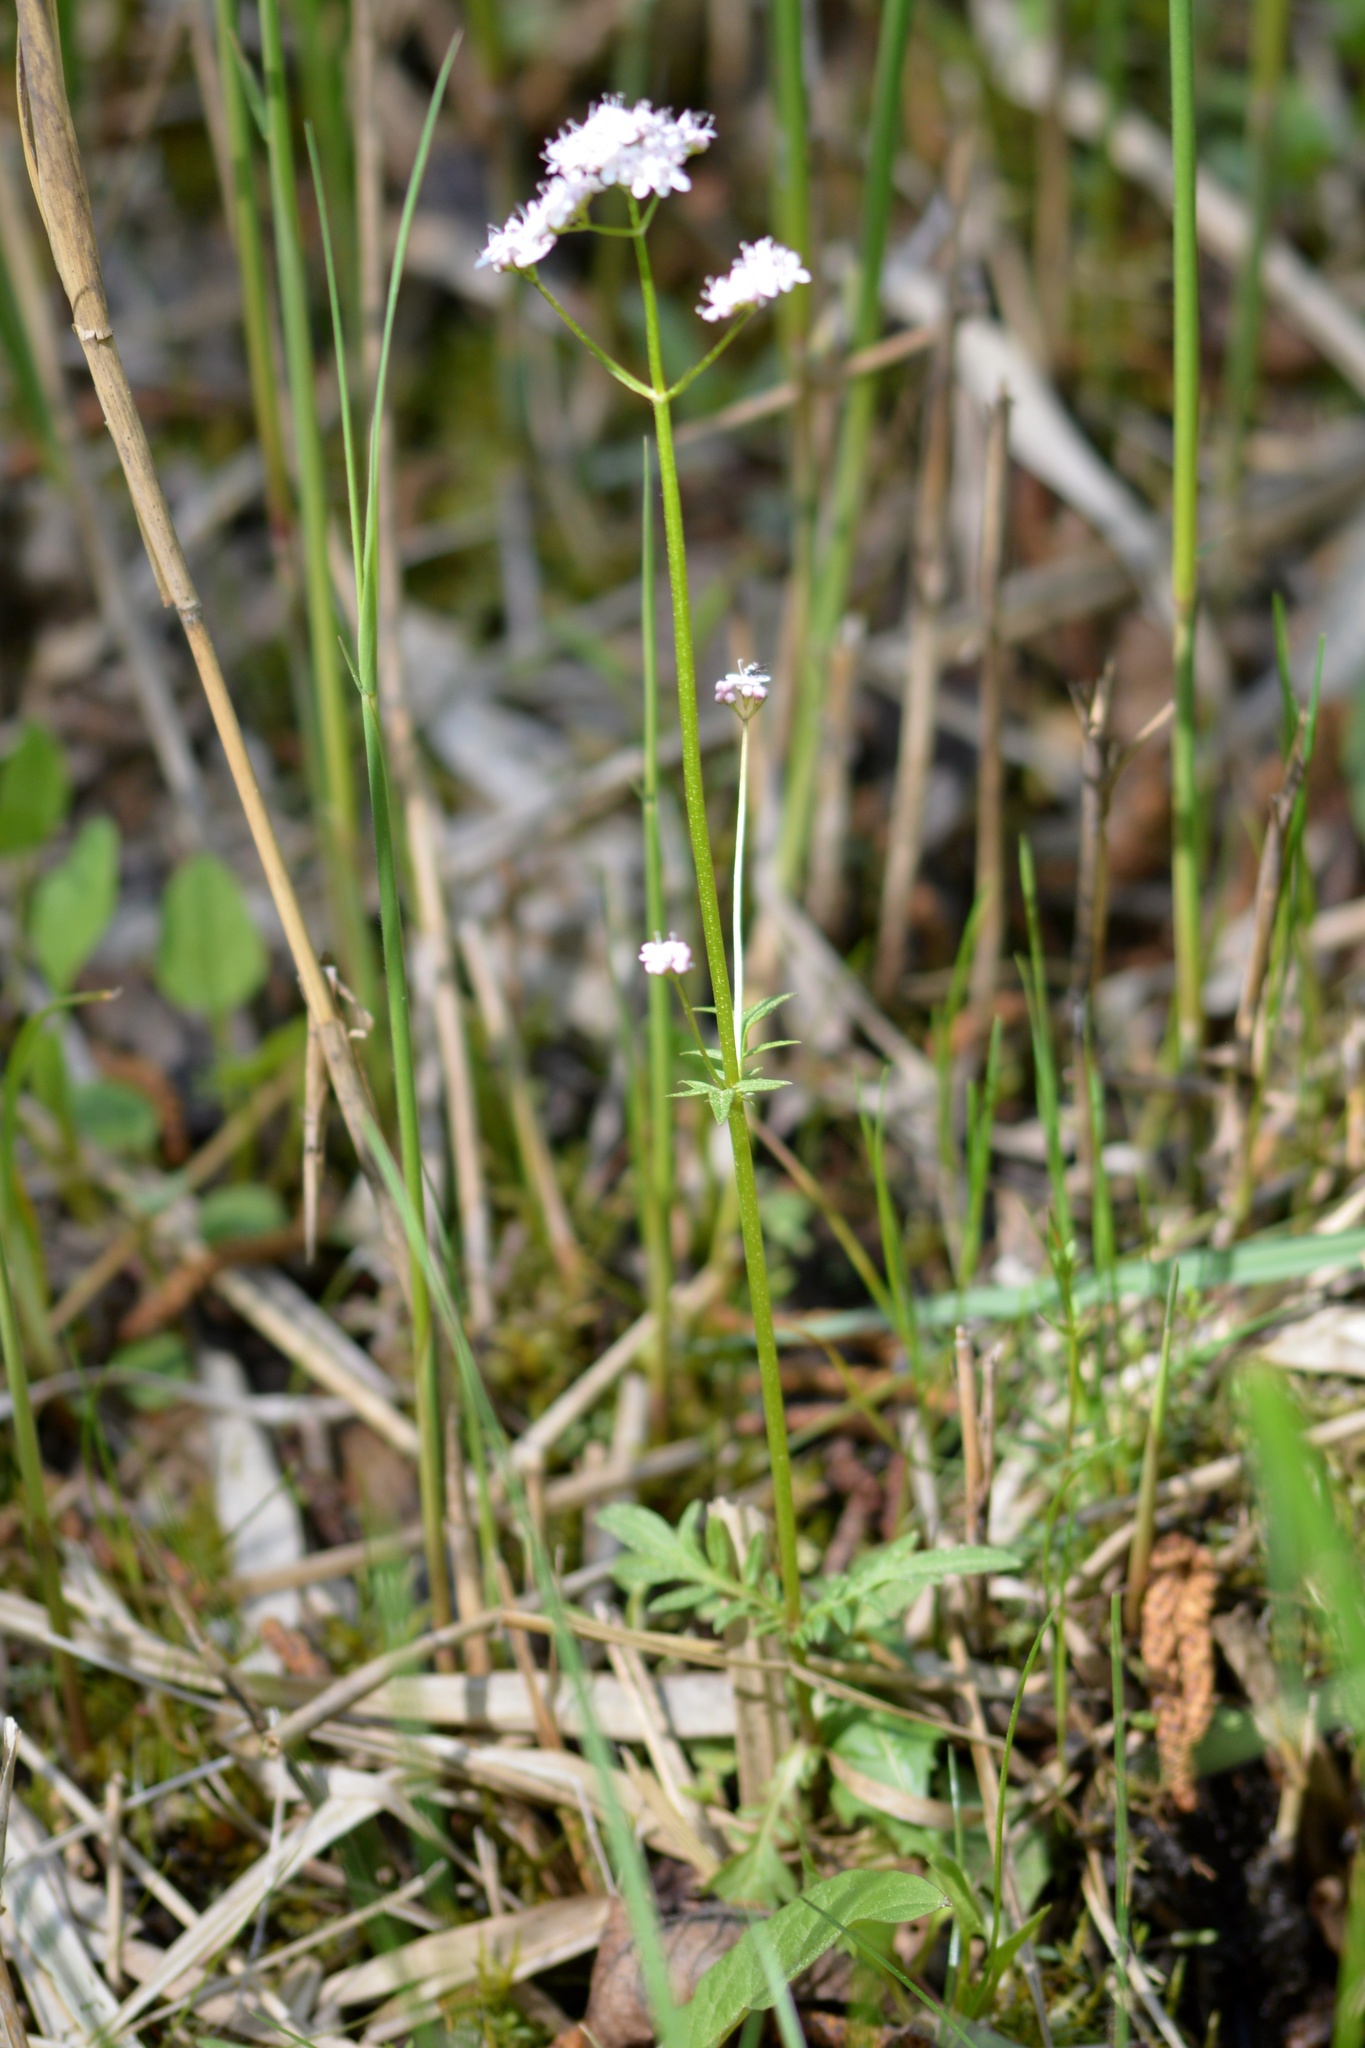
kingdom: Plantae
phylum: Tracheophyta
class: Magnoliopsida
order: Dipsacales
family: Caprifoliaceae
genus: Valeriana
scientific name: Valeriana dioica
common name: Marsh valerian
